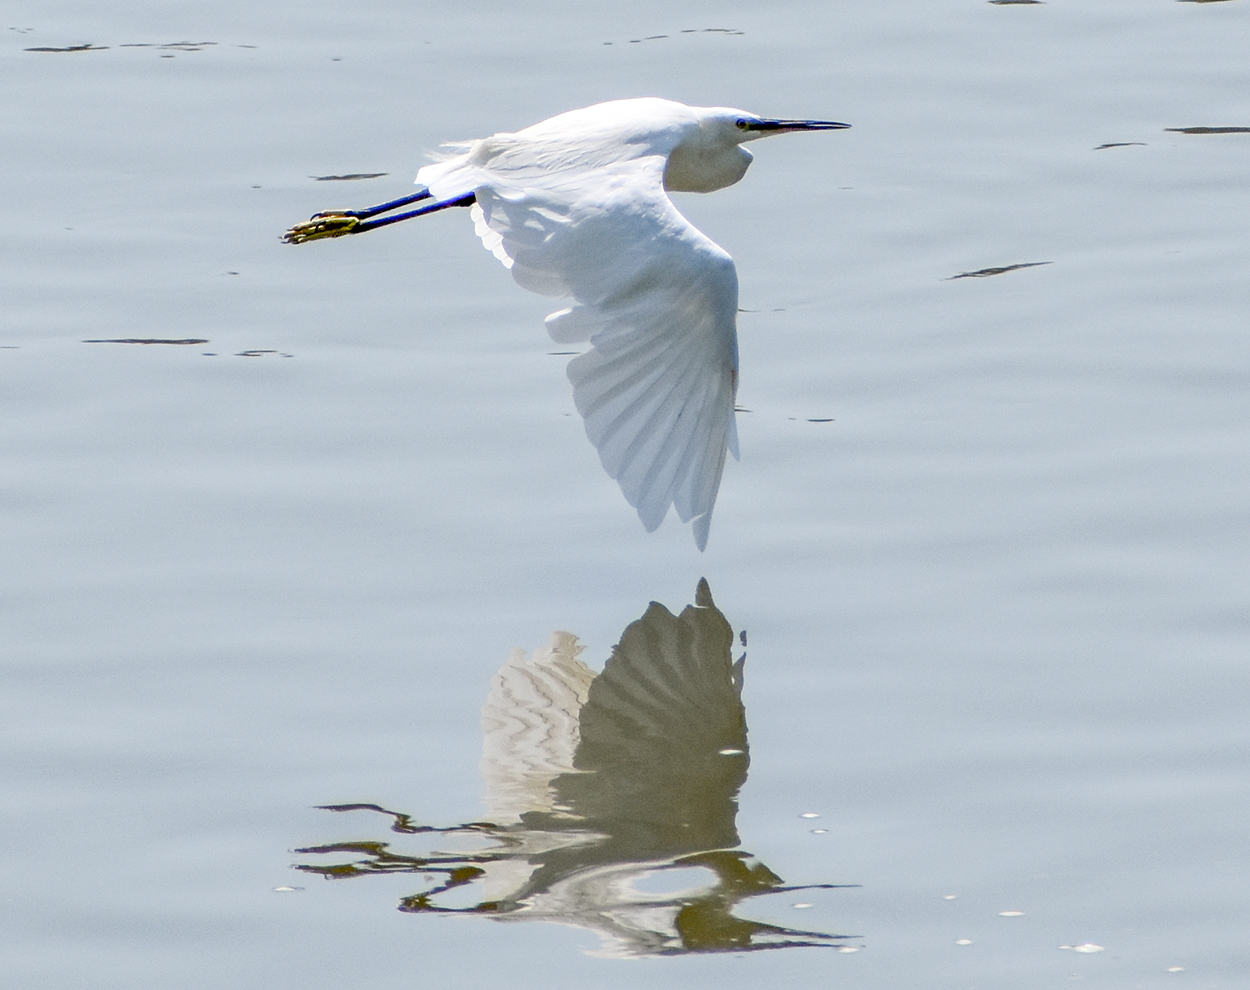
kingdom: Animalia
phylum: Chordata
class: Aves
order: Pelecaniformes
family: Ardeidae
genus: Egretta
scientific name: Egretta garzetta
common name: Little egret
